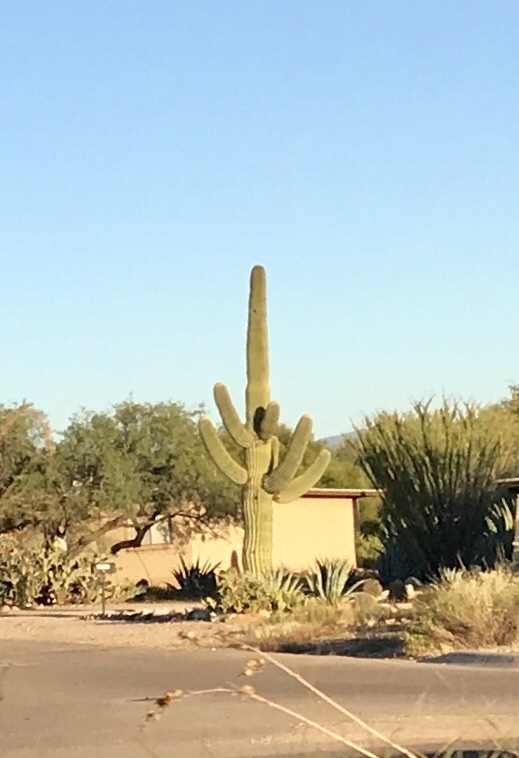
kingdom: Plantae
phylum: Tracheophyta
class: Magnoliopsida
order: Caryophyllales
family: Cactaceae
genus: Carnegiea
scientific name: Carnegiea gigantea
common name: Saguaro
